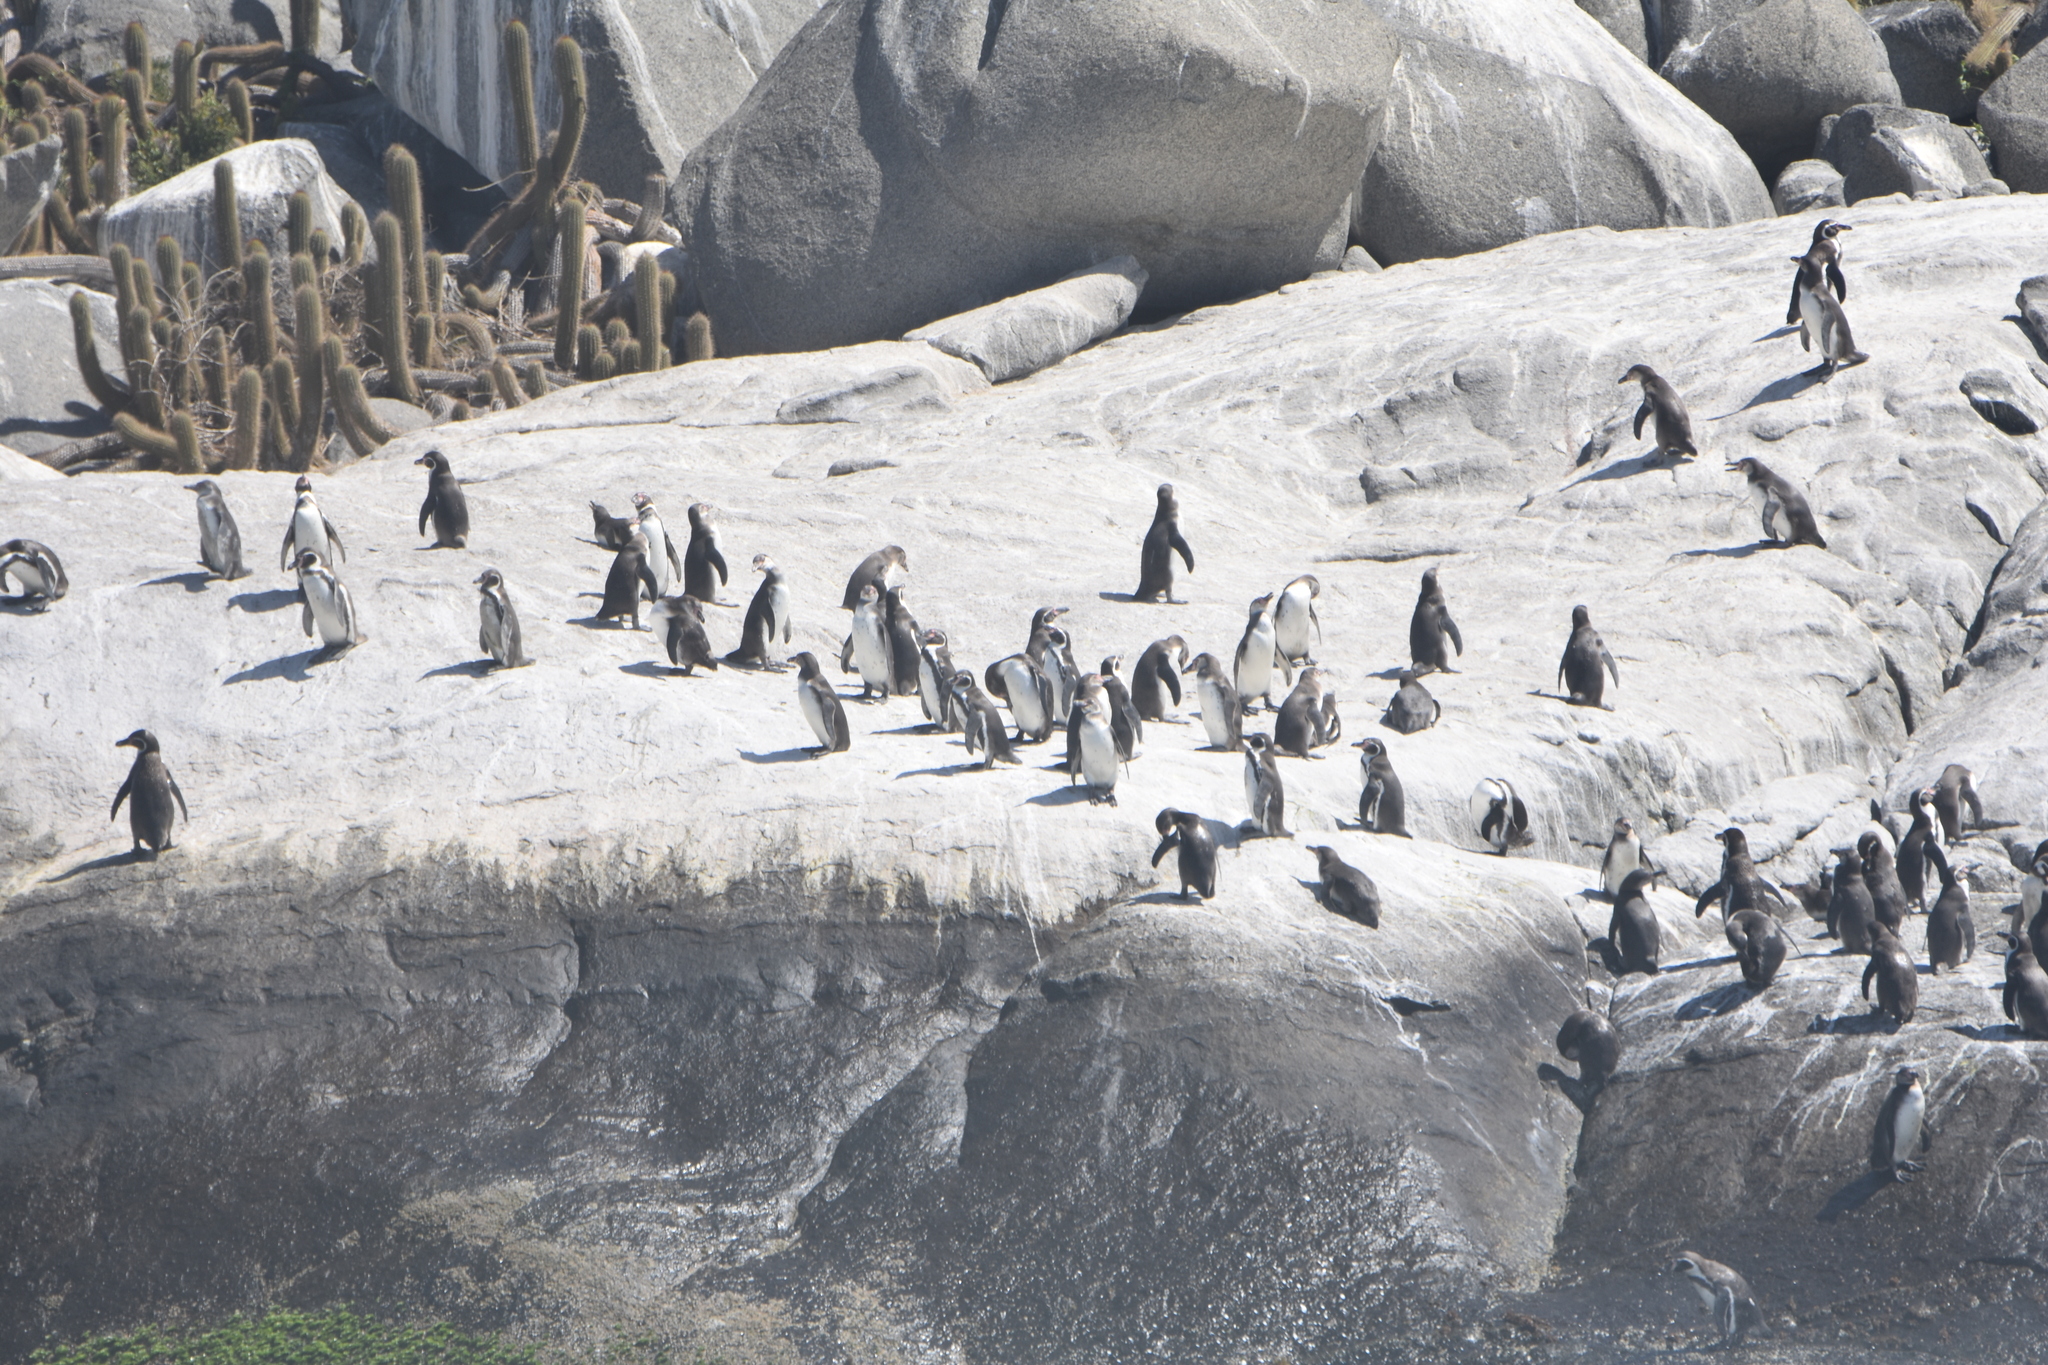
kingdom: Animalia
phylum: Chordata
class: Aves
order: Sphenisciformes
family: Spheniscidae
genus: Spheniscus
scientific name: Spheniscus humboldti
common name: Humboldt penguin
